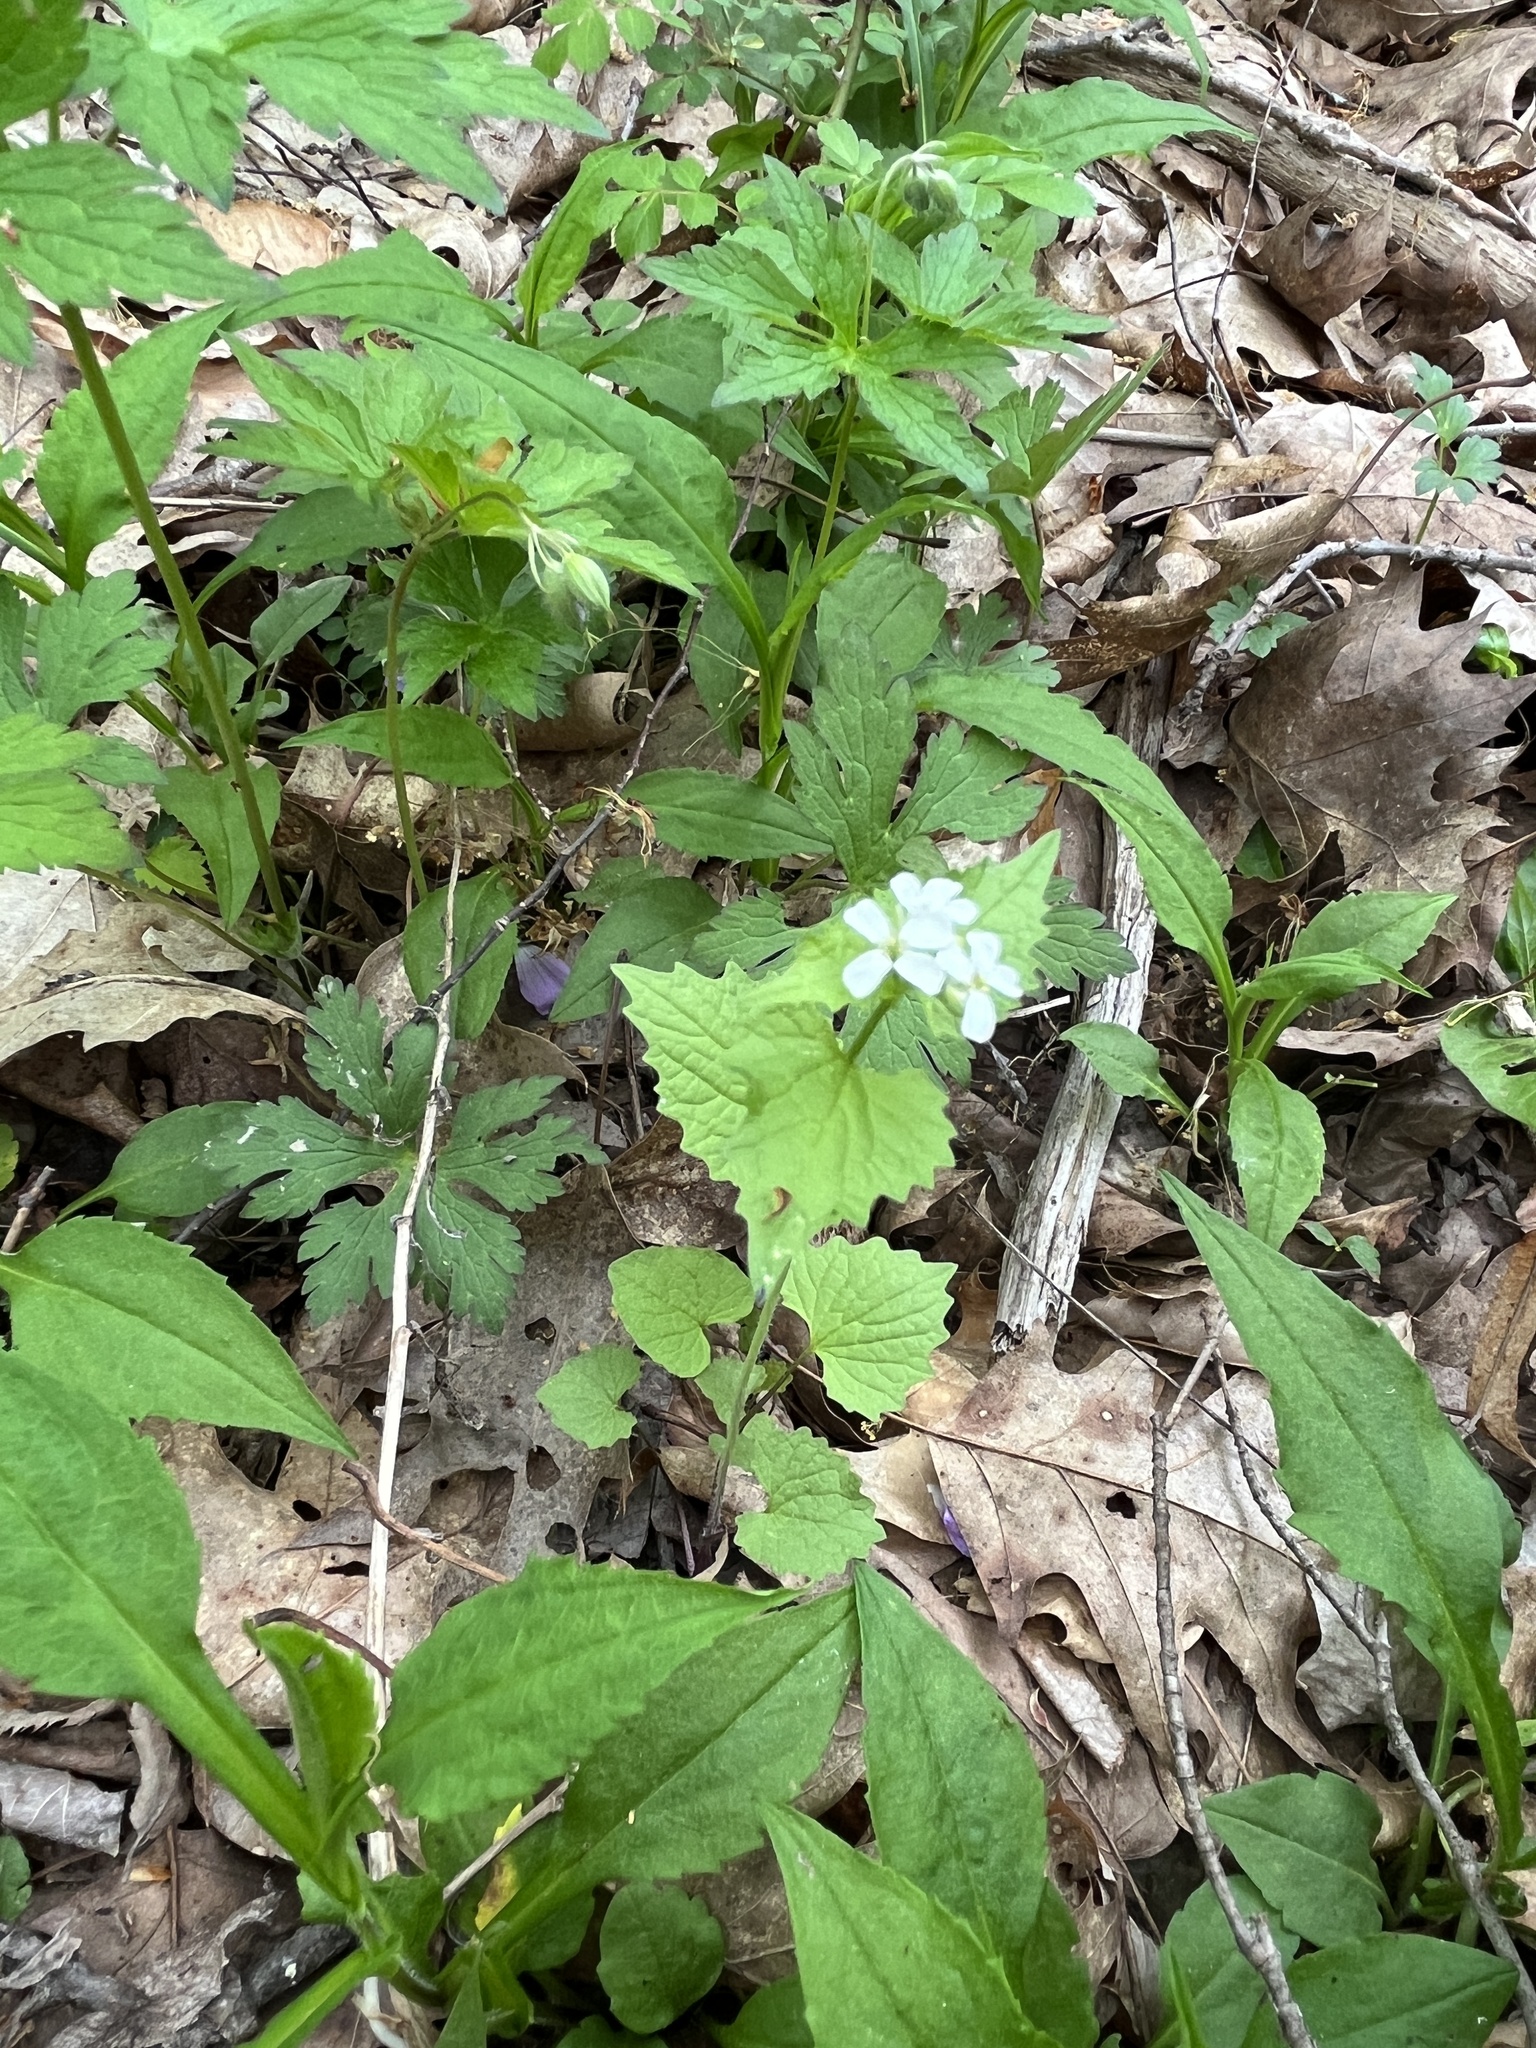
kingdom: Plantae
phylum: Tracheophyta
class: Magnoliopsida
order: Brassicales
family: Brassicaceae
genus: Alliaria
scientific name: Alliaria petiolata
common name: Garlic mustard
